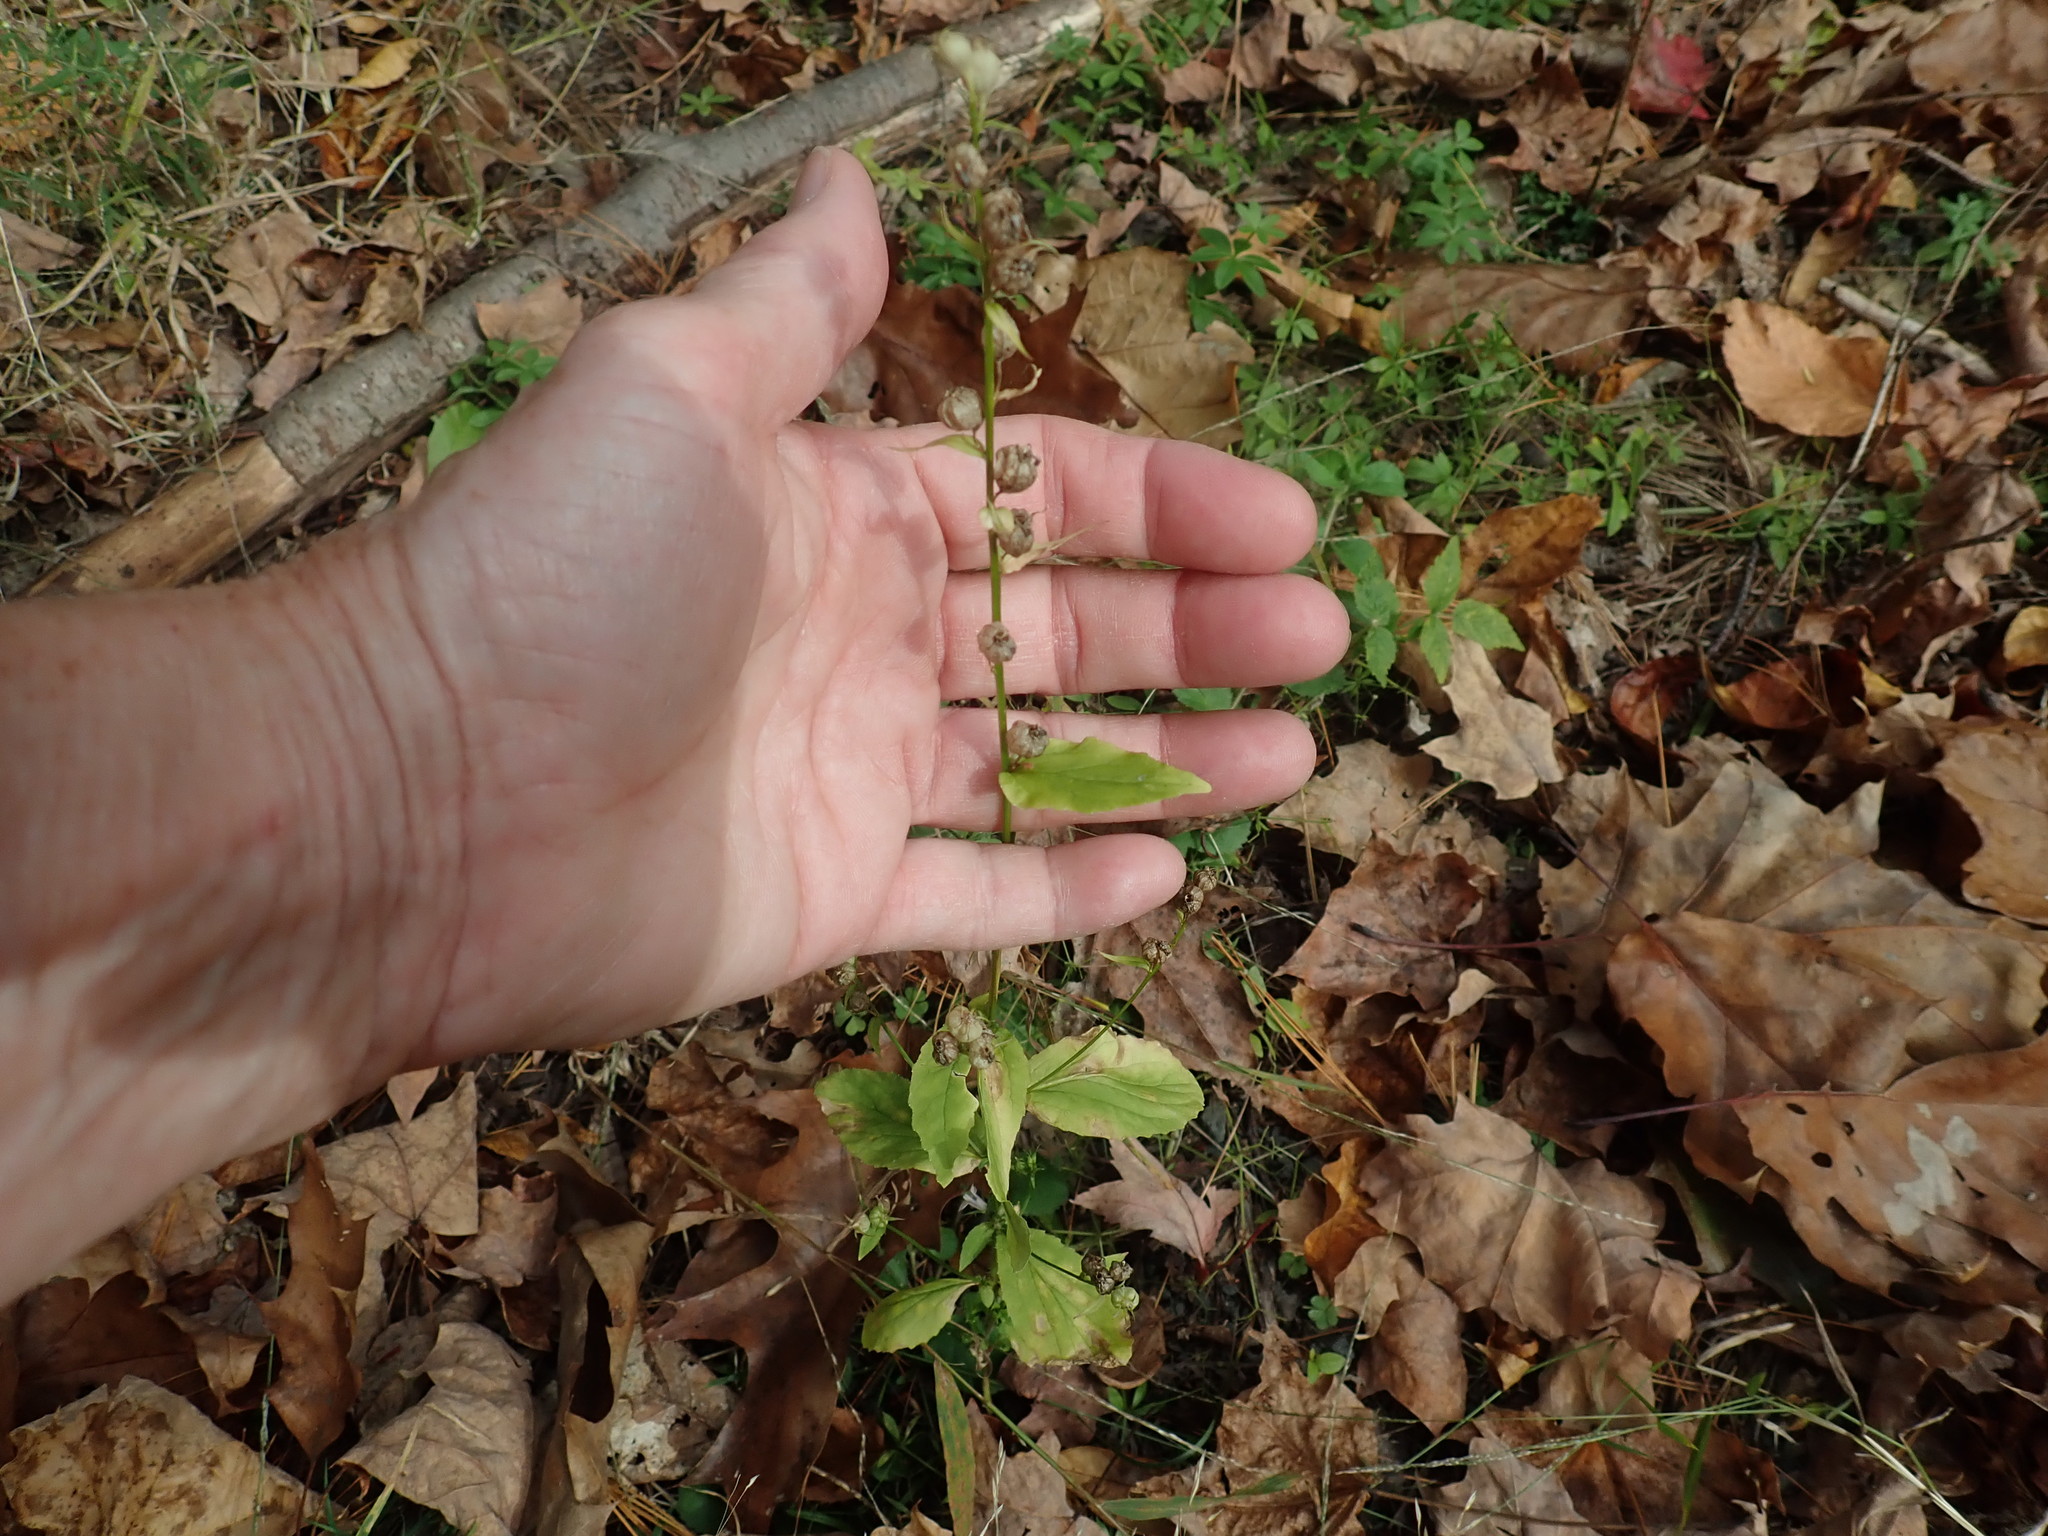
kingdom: Plantae
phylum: Tracheophyta
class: Magnoliopsida
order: Asterales
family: Campanulaceae
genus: Lobelia
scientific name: Lobelia inflata
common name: Indian tobacco
